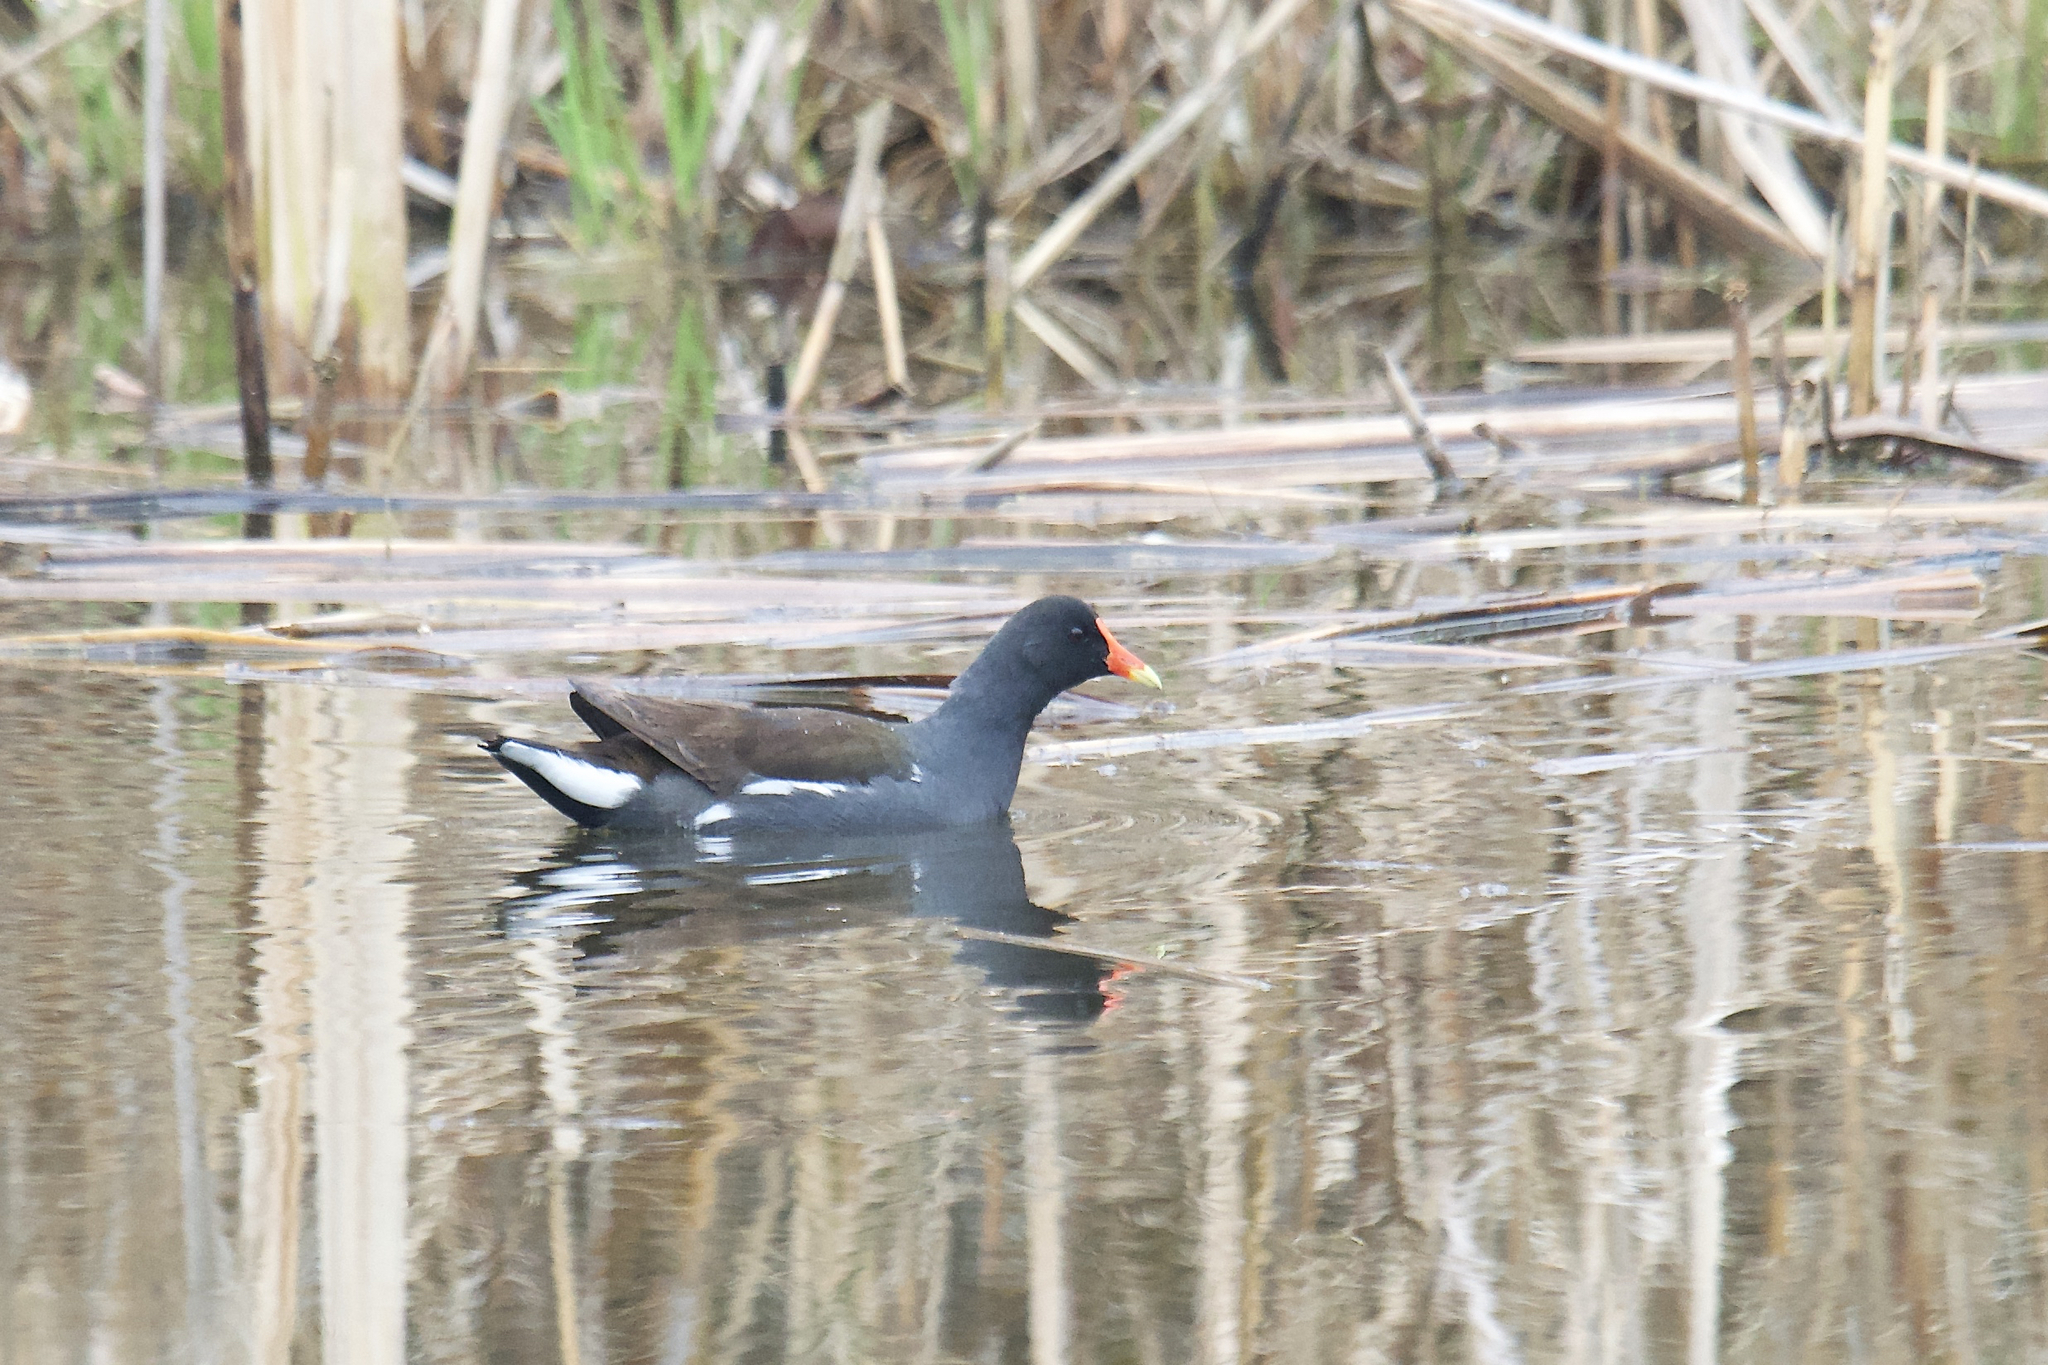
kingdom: Animalia
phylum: Chordata
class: Aves
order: Gruiformes
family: Rallidae
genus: Gallinula
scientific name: Gallinula chloropus
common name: Common moorhen
